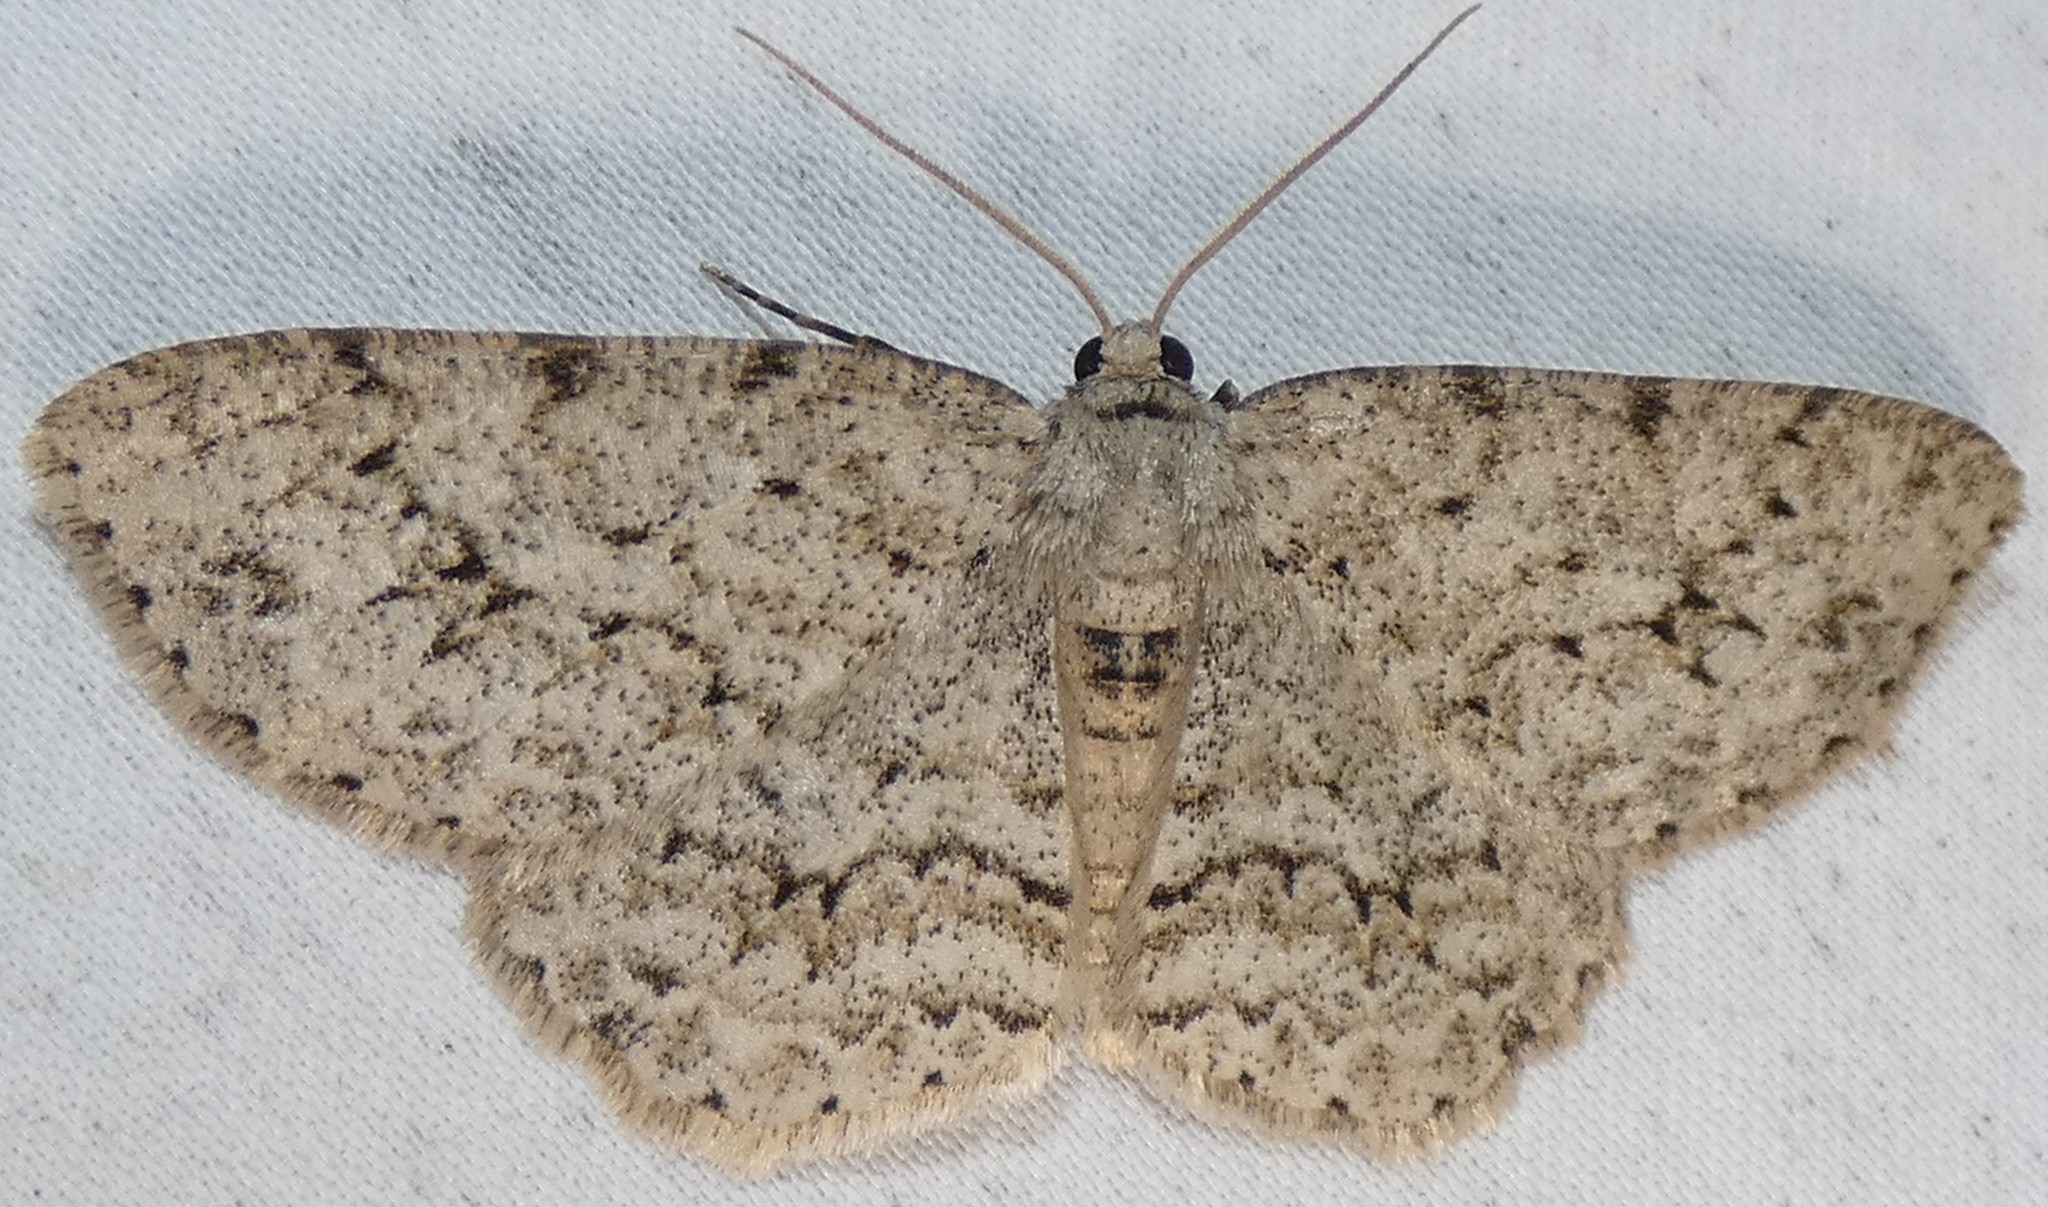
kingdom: Animalia
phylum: Arthropoda
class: Insecta
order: Lepidoptera
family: Geometridae
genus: Ectropis
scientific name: Ectropis crepuscularia
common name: Engrailed
